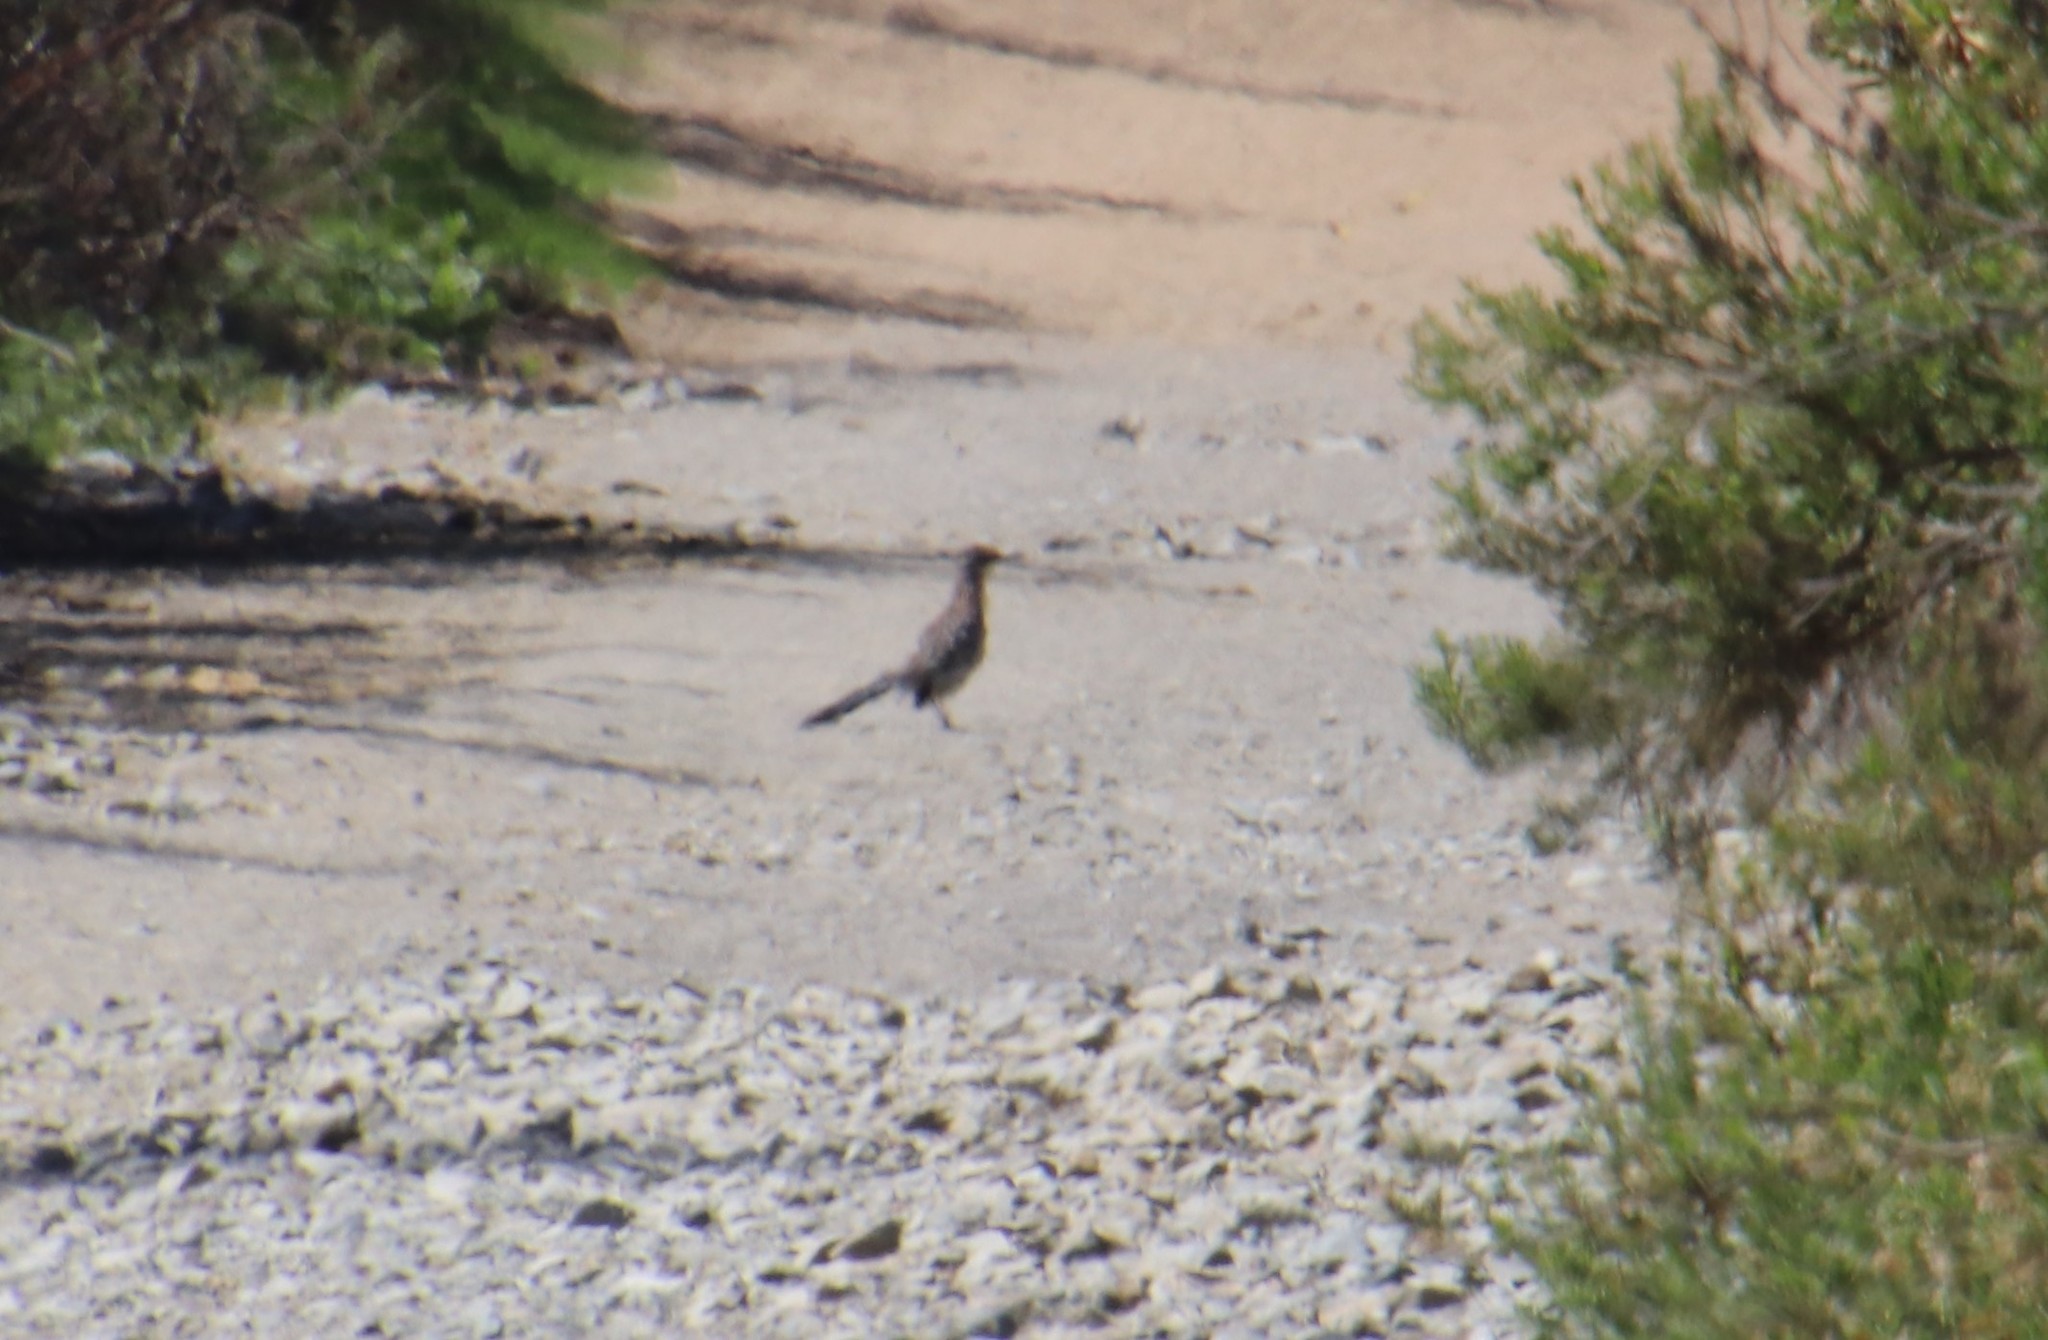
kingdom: Animalia
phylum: Chordata
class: Aves
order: Cuculiformes
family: Cuculidae
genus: Geococcyx
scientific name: Geococcyx californianus
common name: Greater roadrunner
